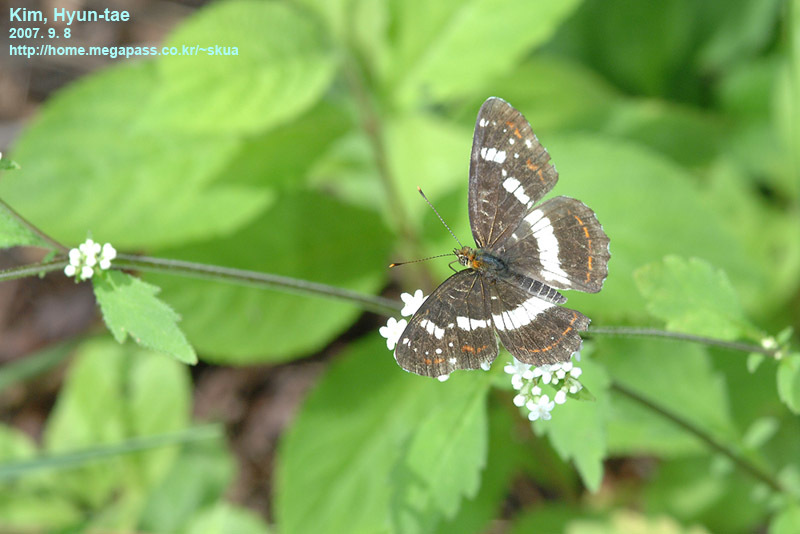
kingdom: Animalia
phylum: Arthropoda
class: Insecta
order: Lepidoptera
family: Nymphalidae
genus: Araschnia
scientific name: Araschnia burejana
